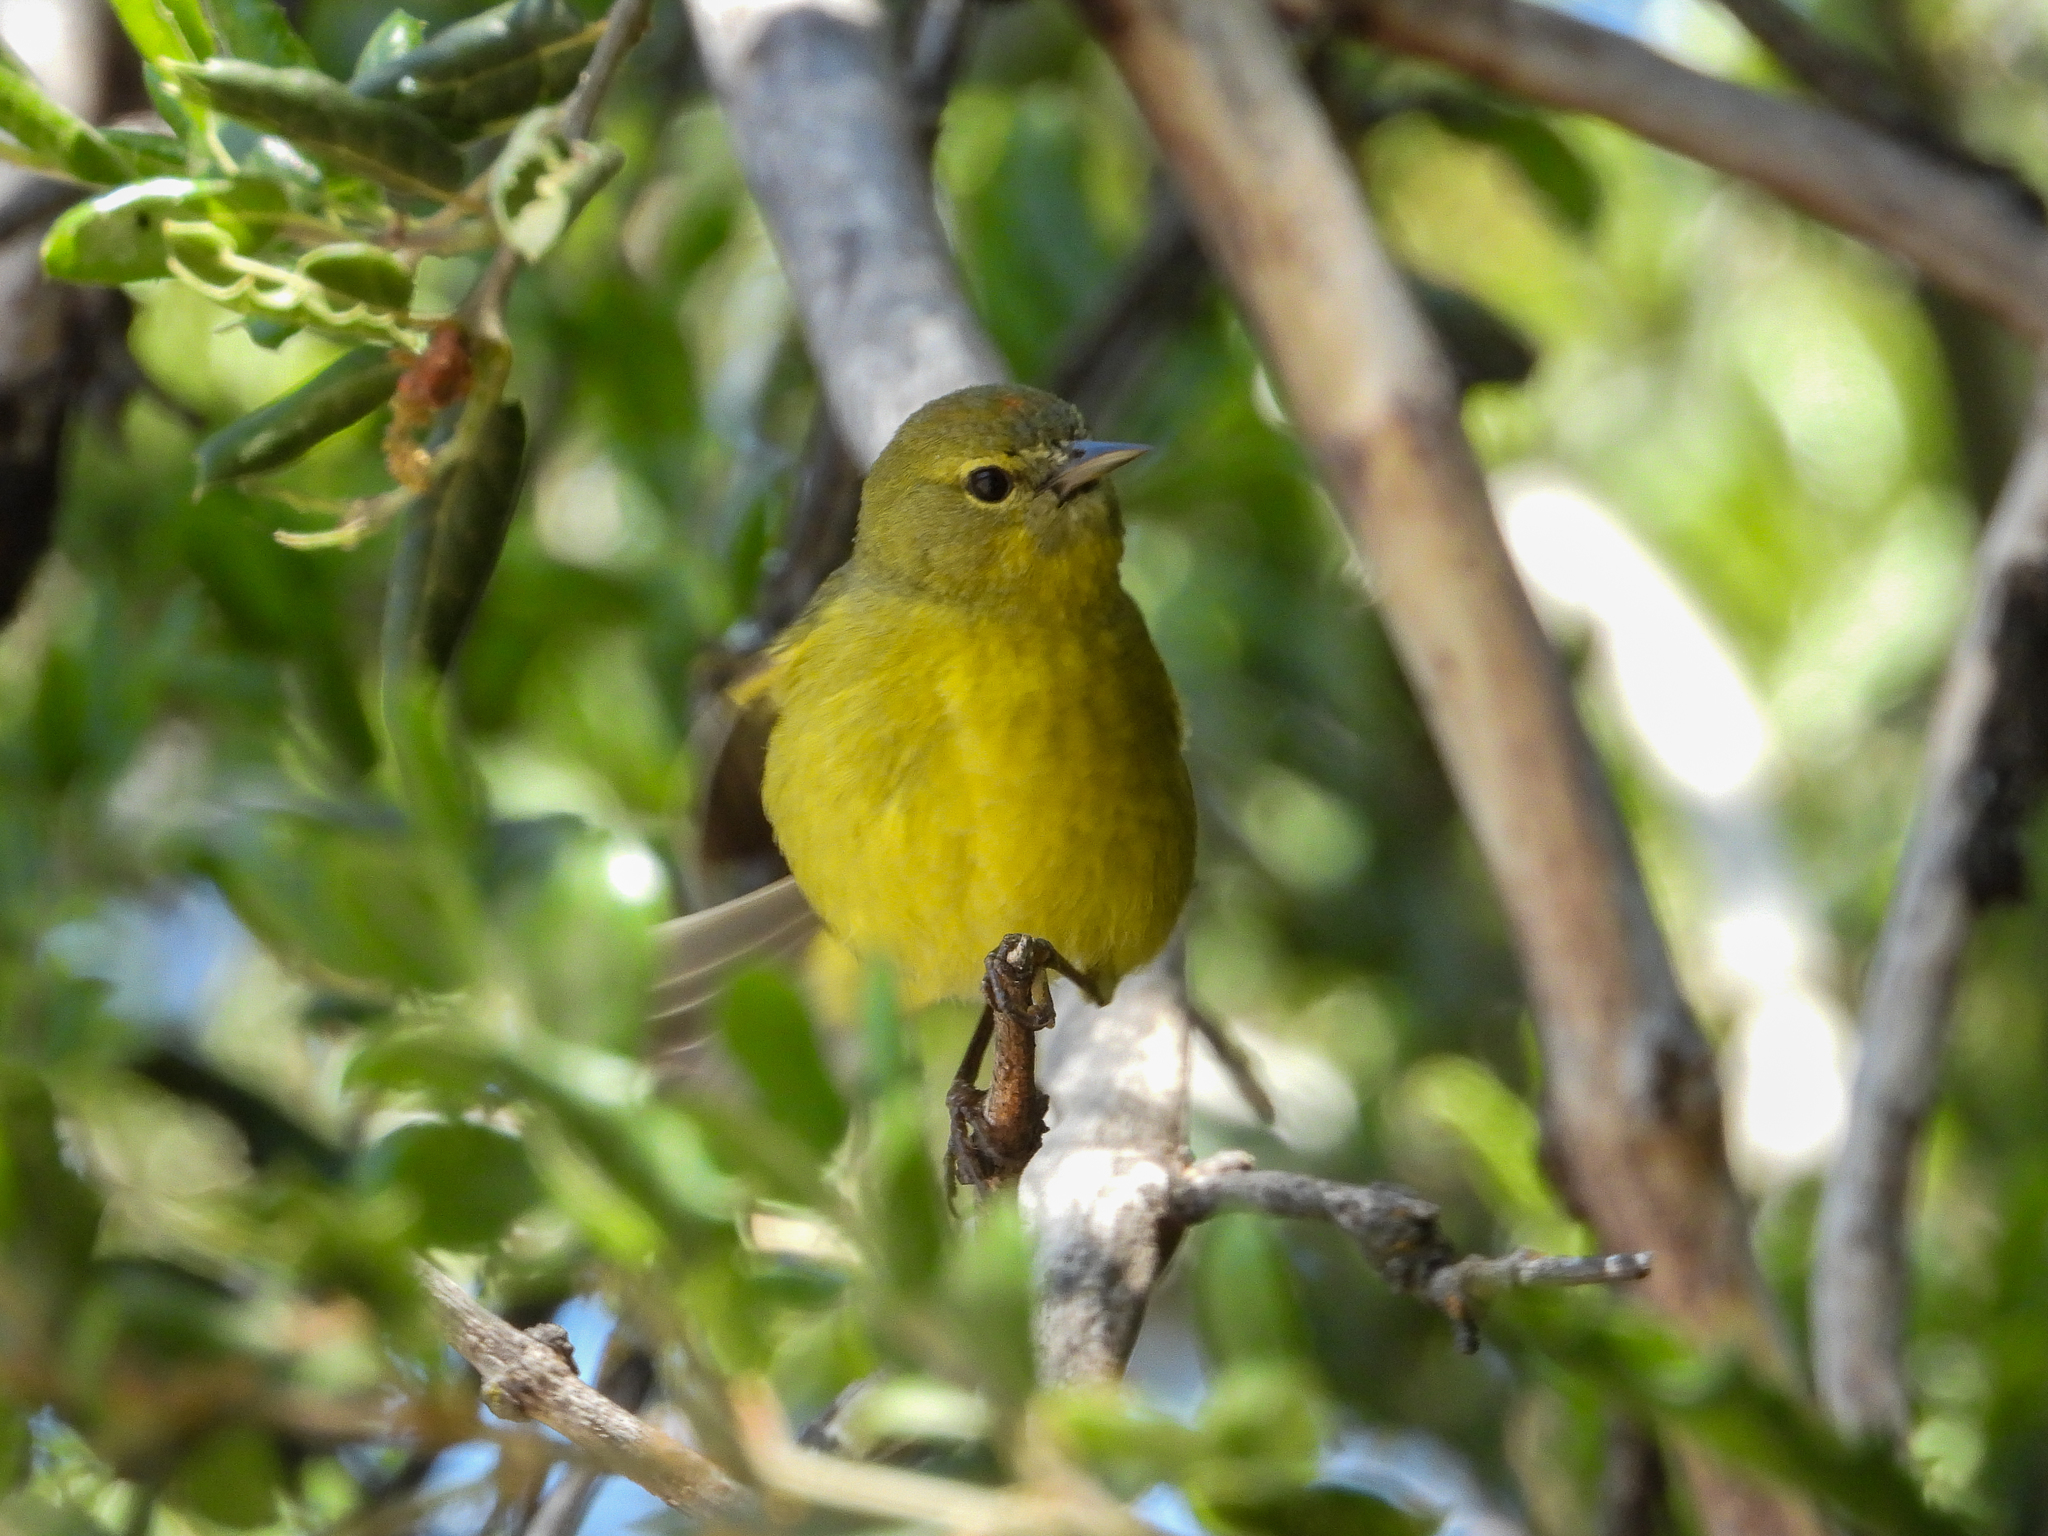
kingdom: Animalia
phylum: Chordata
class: Aves
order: Passeriformes
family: Parulidae
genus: Leiothlypis
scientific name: Leiothlypis celata
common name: Orange-crowned warbler
